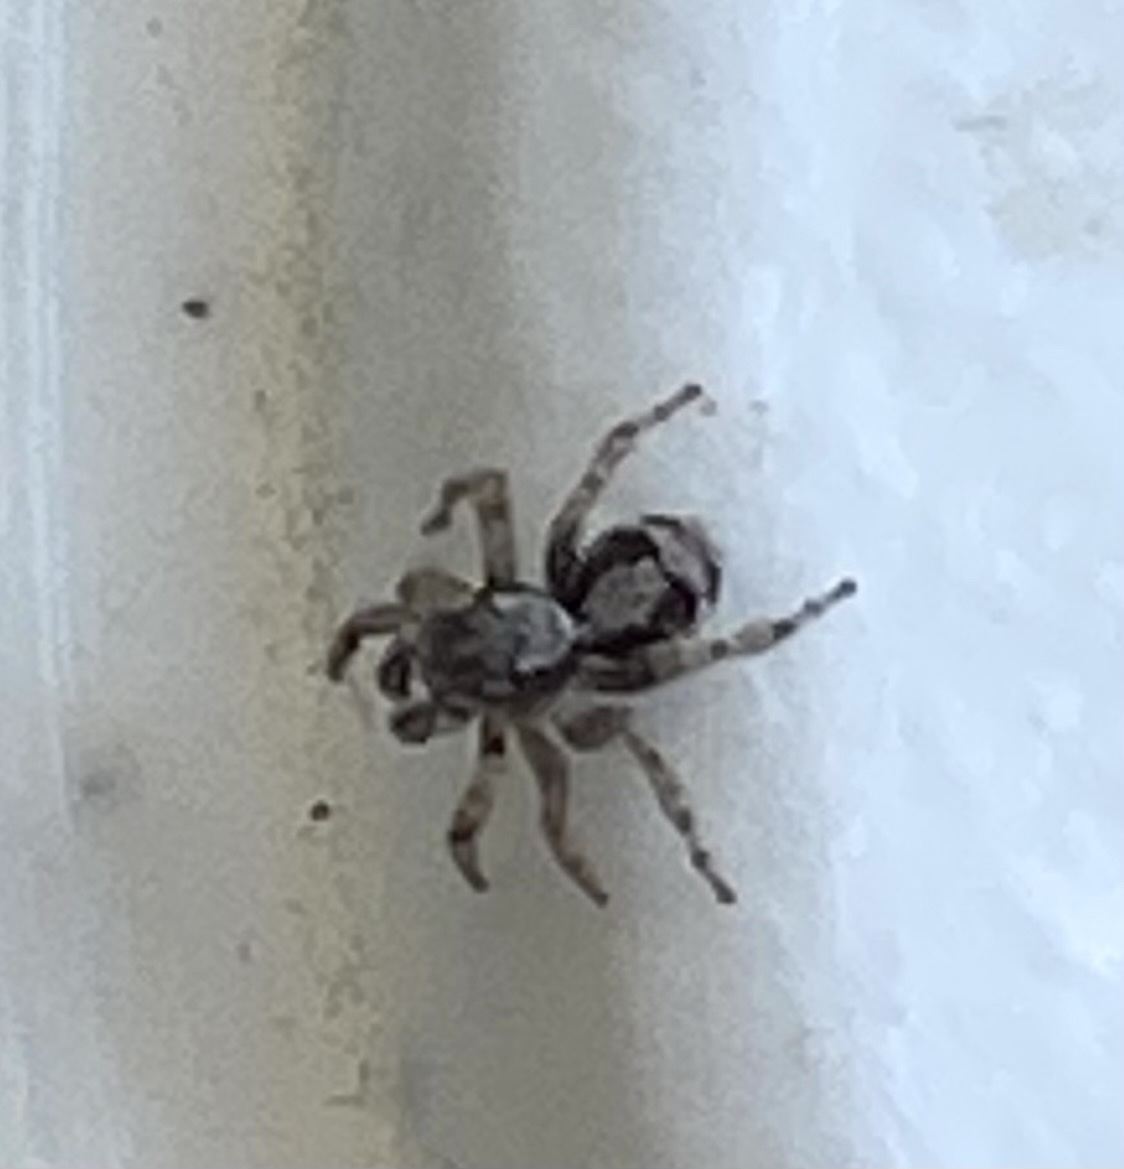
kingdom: Animalia
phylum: Arthropoda
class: Arachnida
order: Araneae
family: Salticidae
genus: Naphrys
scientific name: Naphrys pulex
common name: Flea jumping spider
